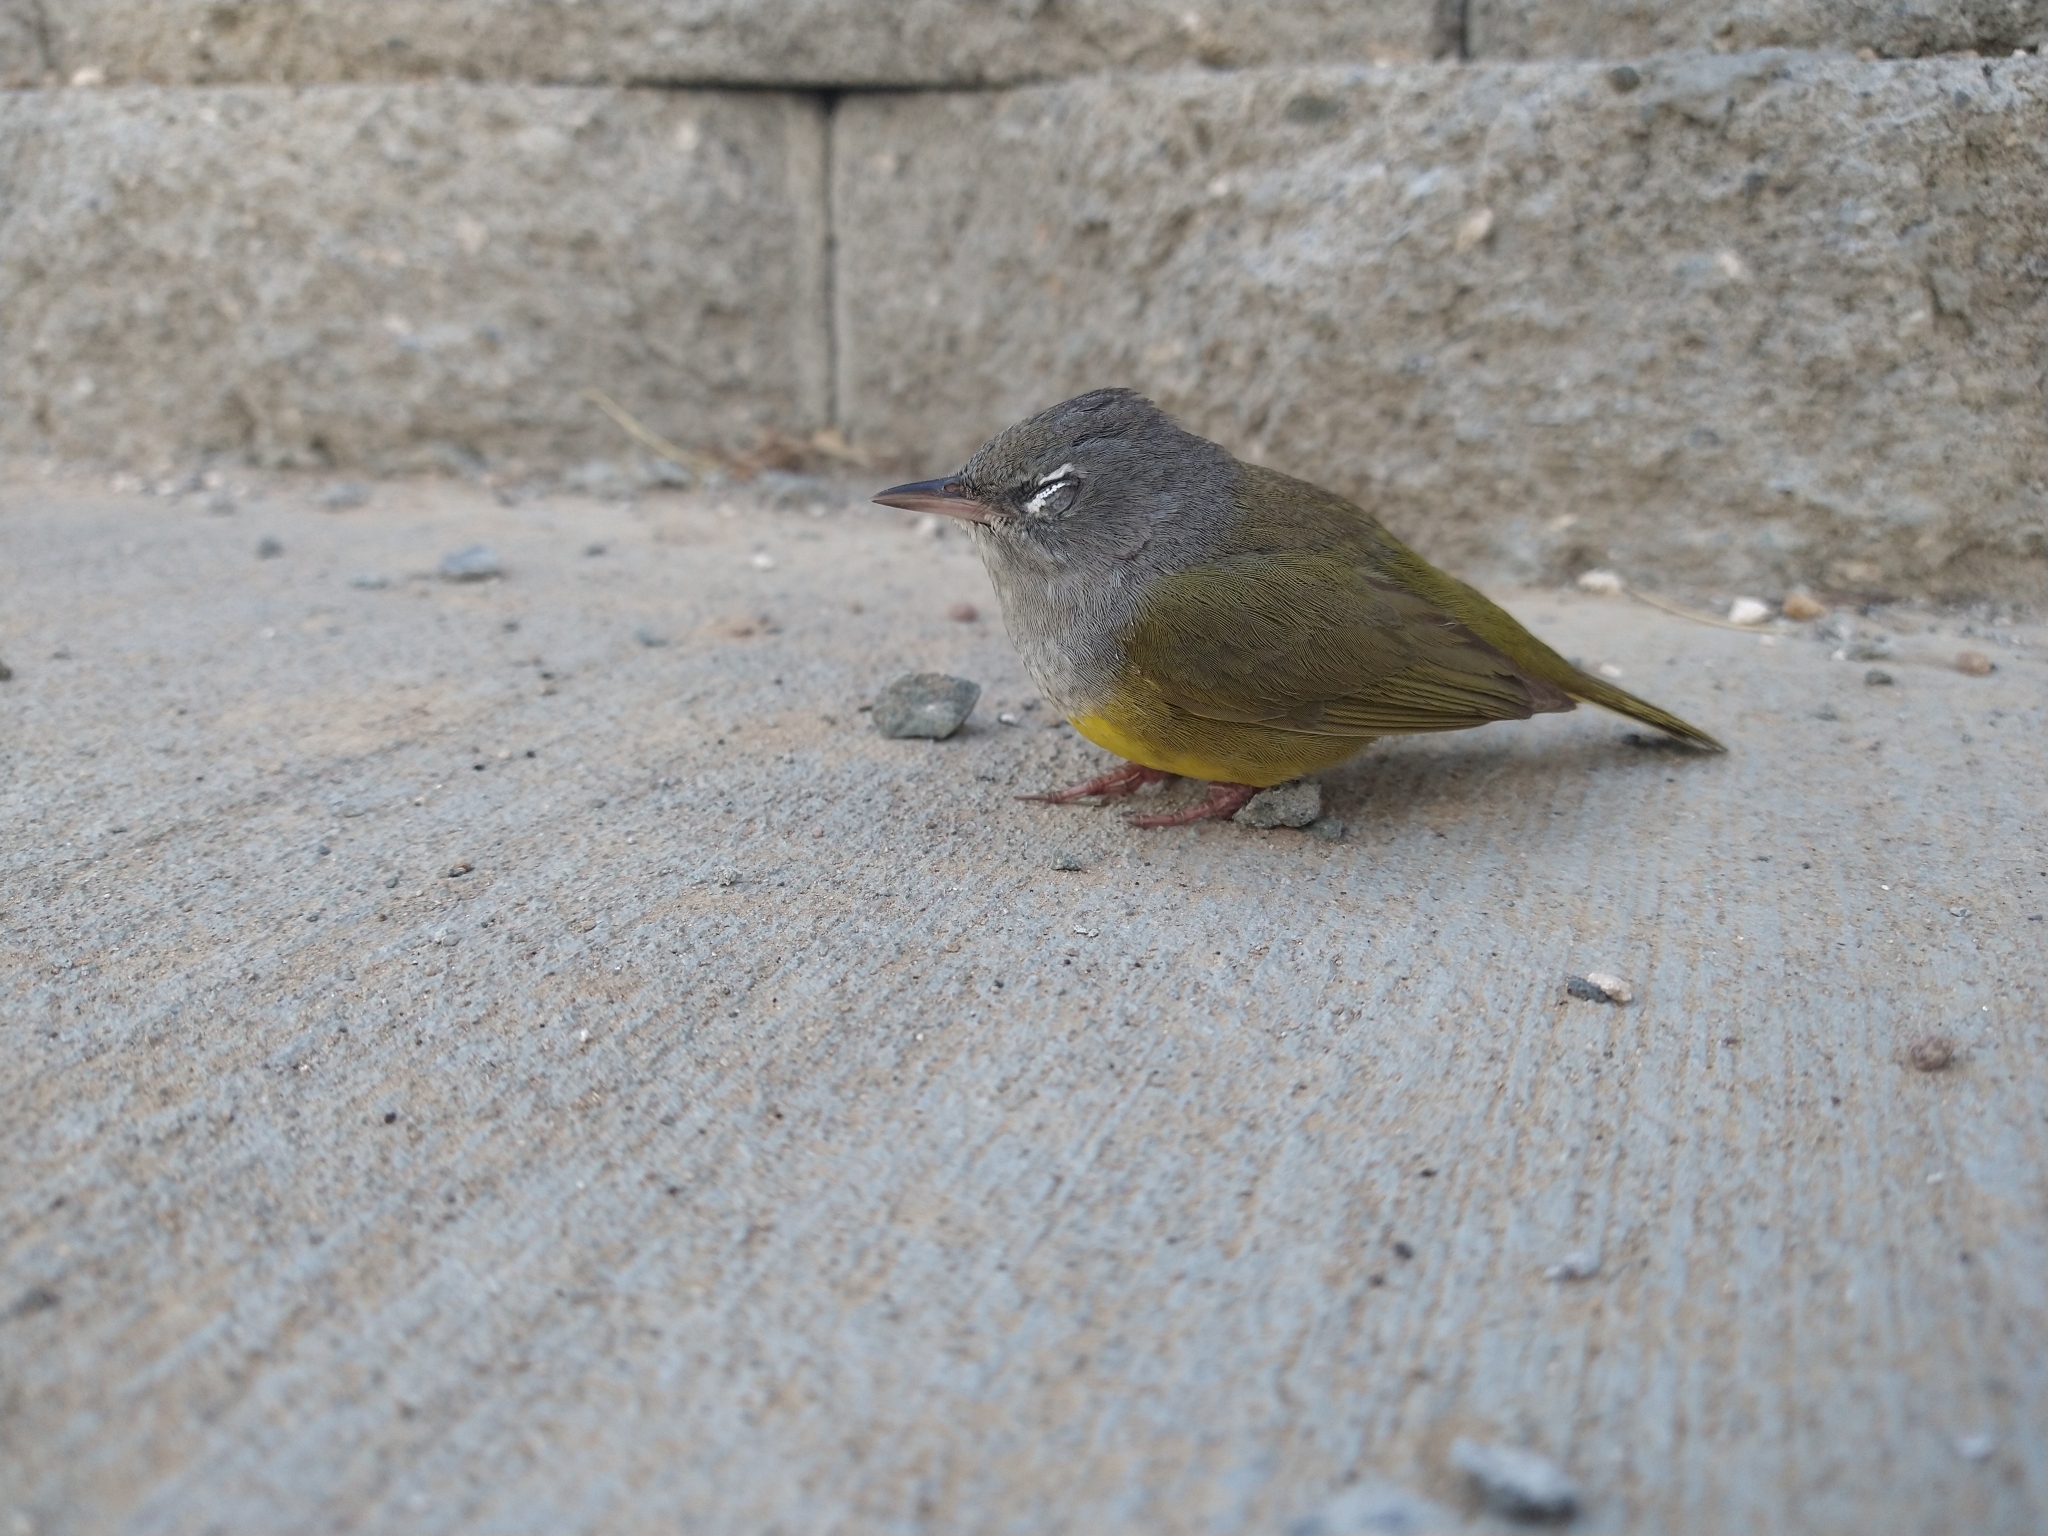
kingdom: Animalia
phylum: Chordata
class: Aves
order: Passeriformes
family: Parulidae
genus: Geothlypis
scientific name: Geothlypis tolmiei
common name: Macgillivray's warbler
